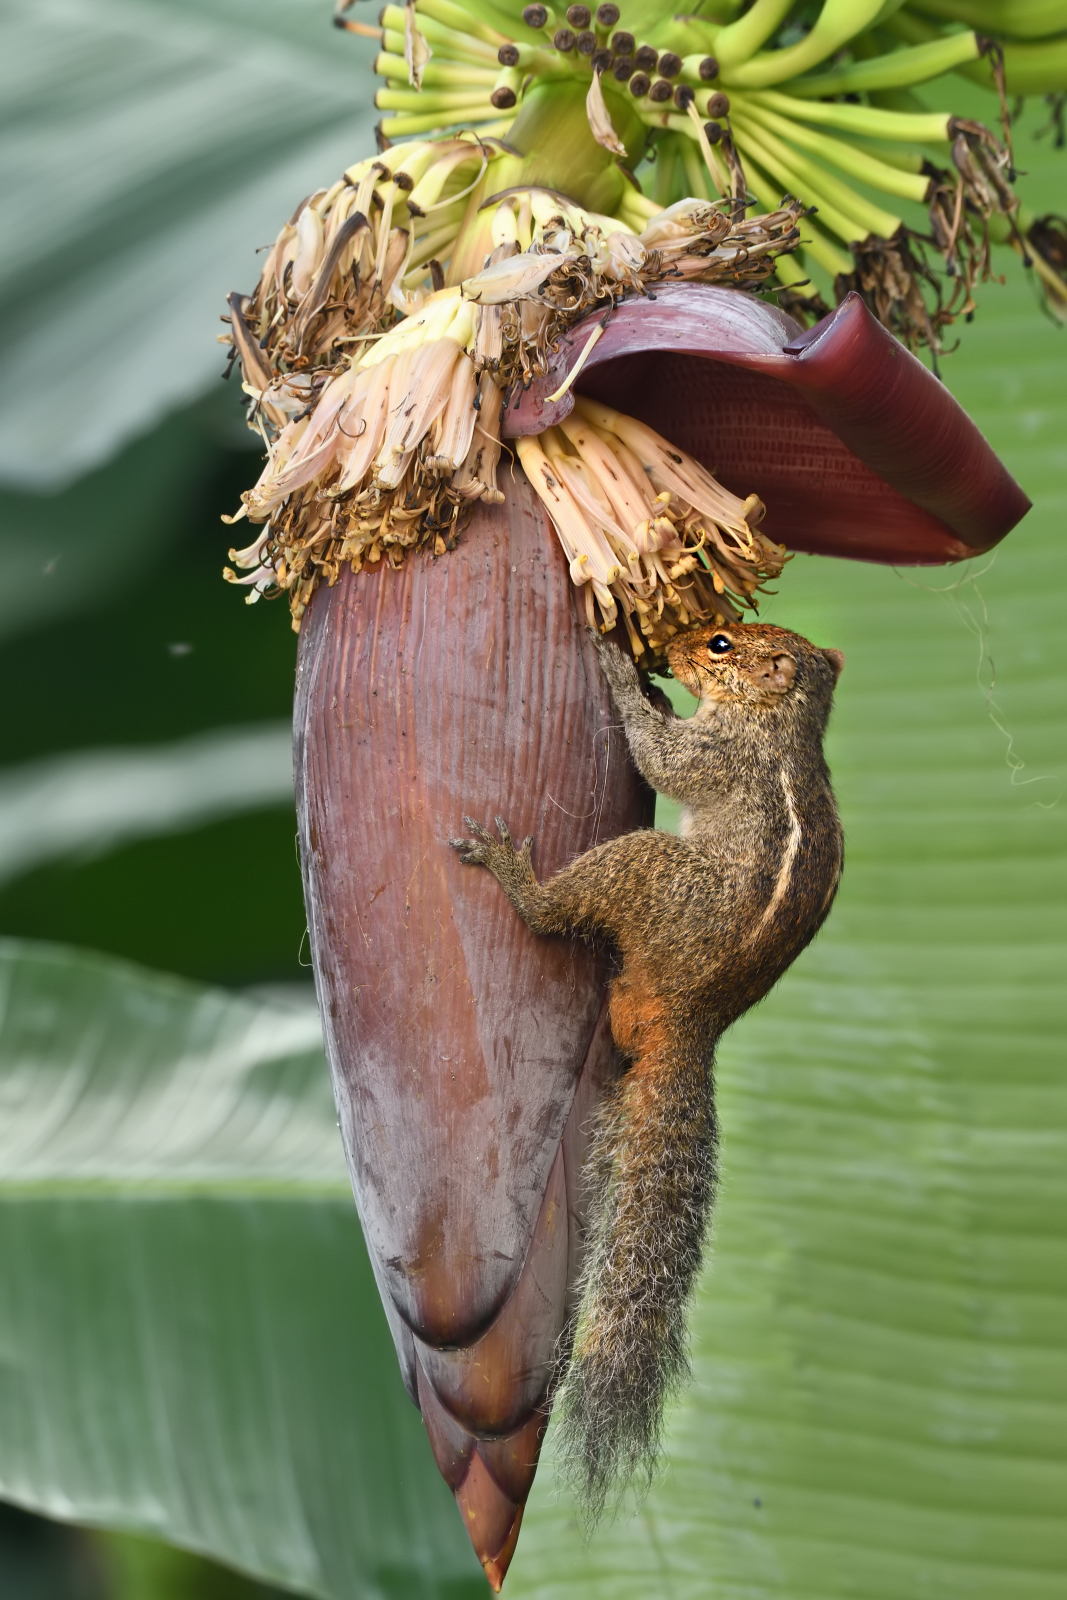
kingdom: Animalia
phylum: Chordata
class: Mammalia
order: Rodentia
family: Sciuridae
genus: Funambulus
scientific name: Funambulus tristriatus
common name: Jungle palm squirrel
